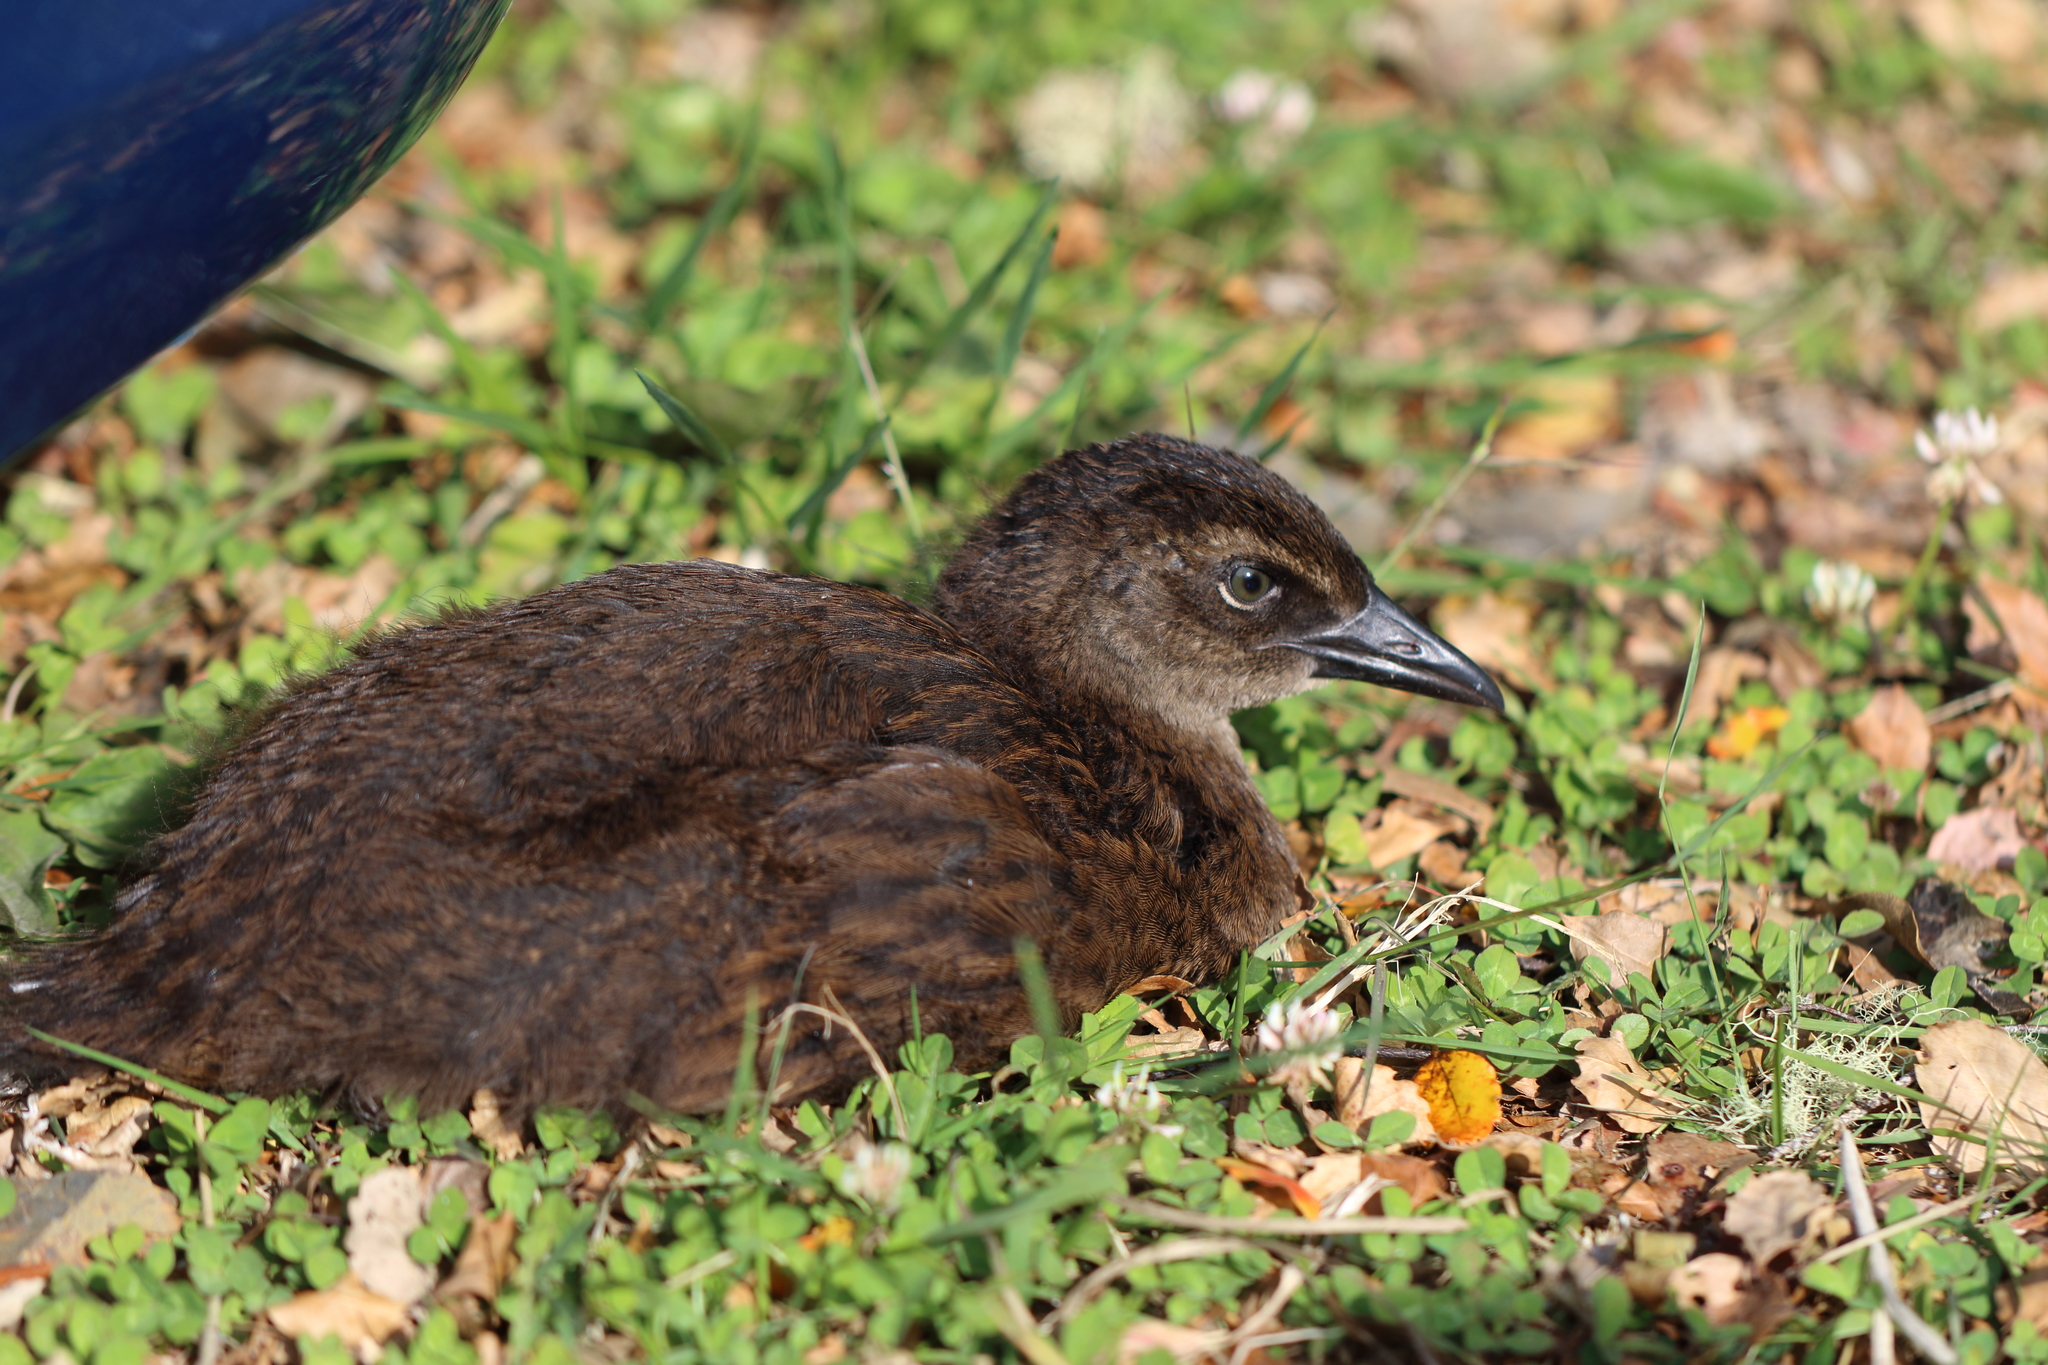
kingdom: Animalia
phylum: Chordata
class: Aves
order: Gruiformes
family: Rallidae
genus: Gallirallus
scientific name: Gallirallus australis
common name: Weka
